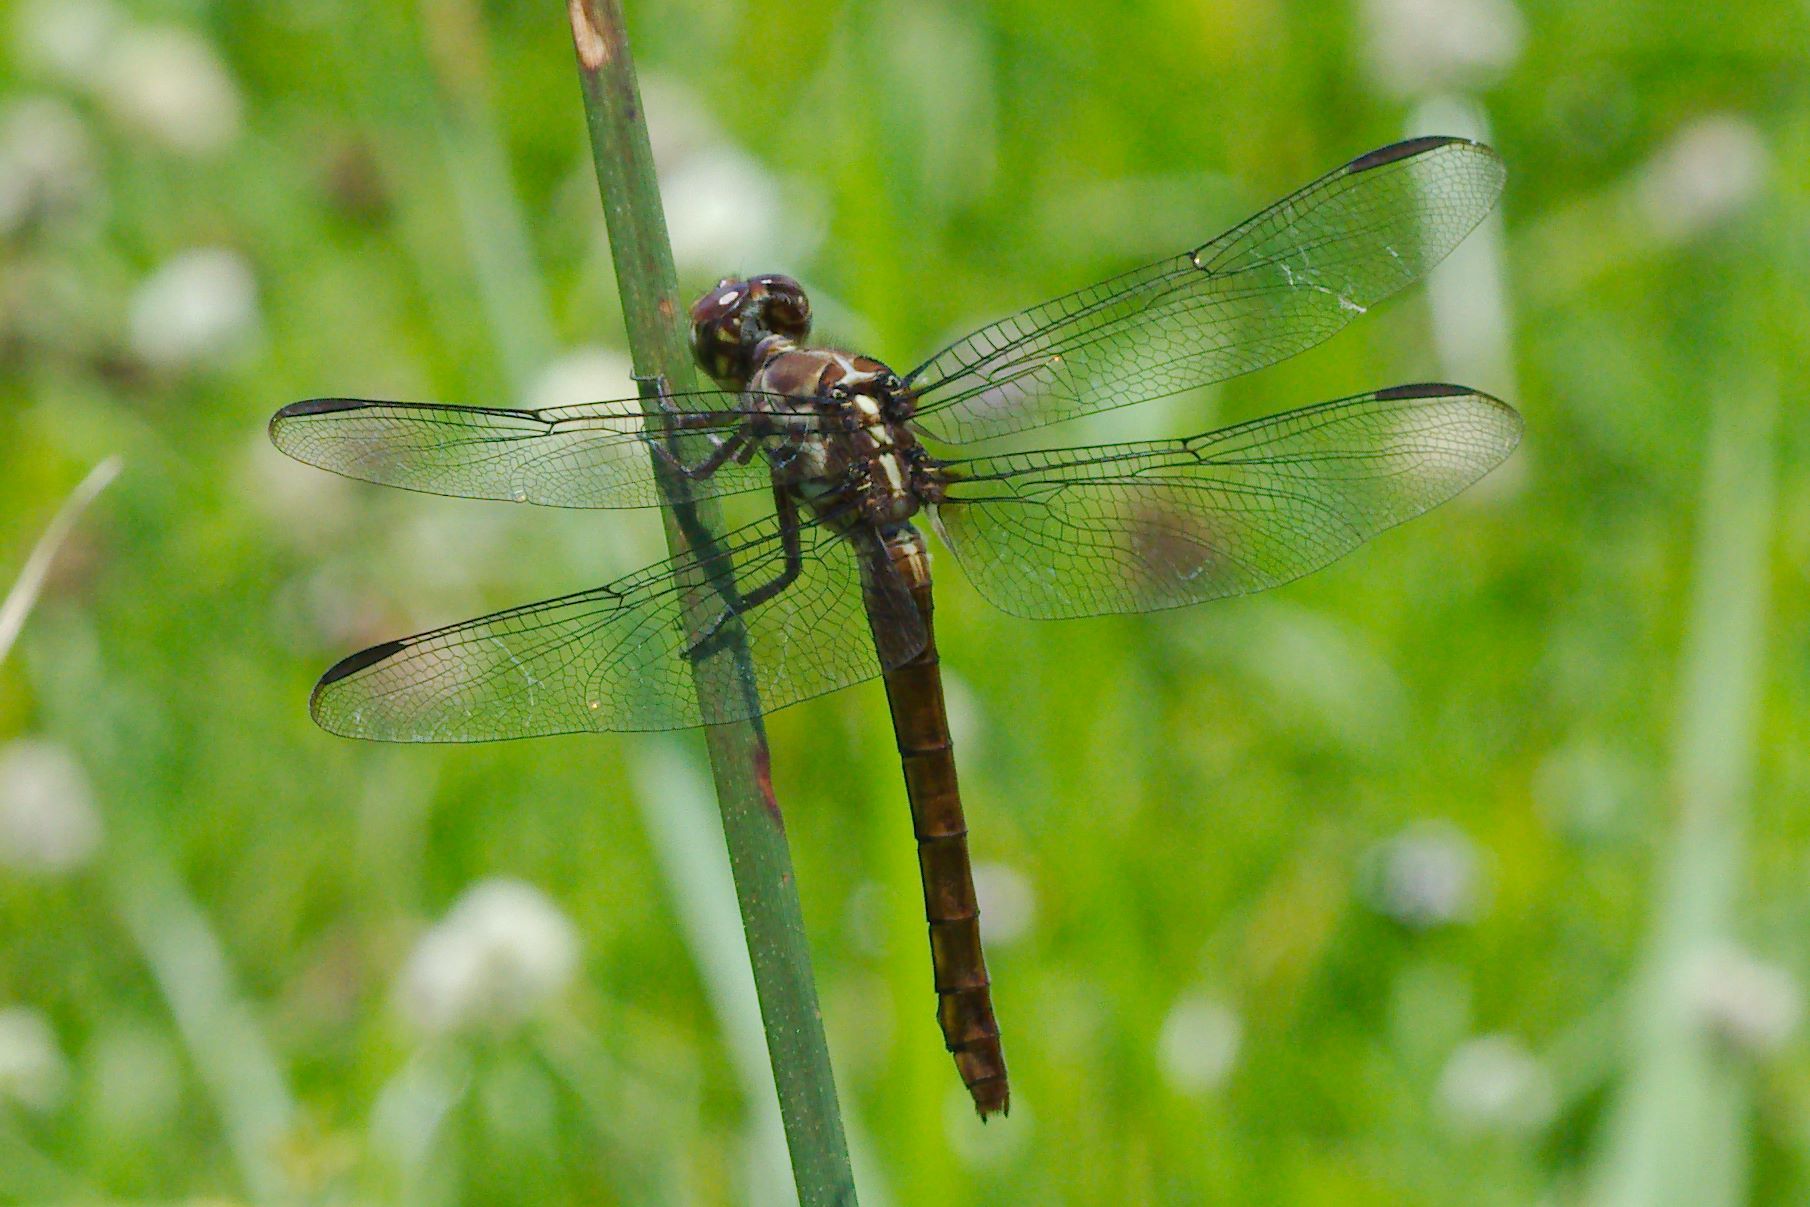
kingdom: Animalia
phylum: Arthropoda
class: Insecta
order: Odonata
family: Libellulidae
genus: Orthemis
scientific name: Orthemis ferruginea
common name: Roseate skimmer
